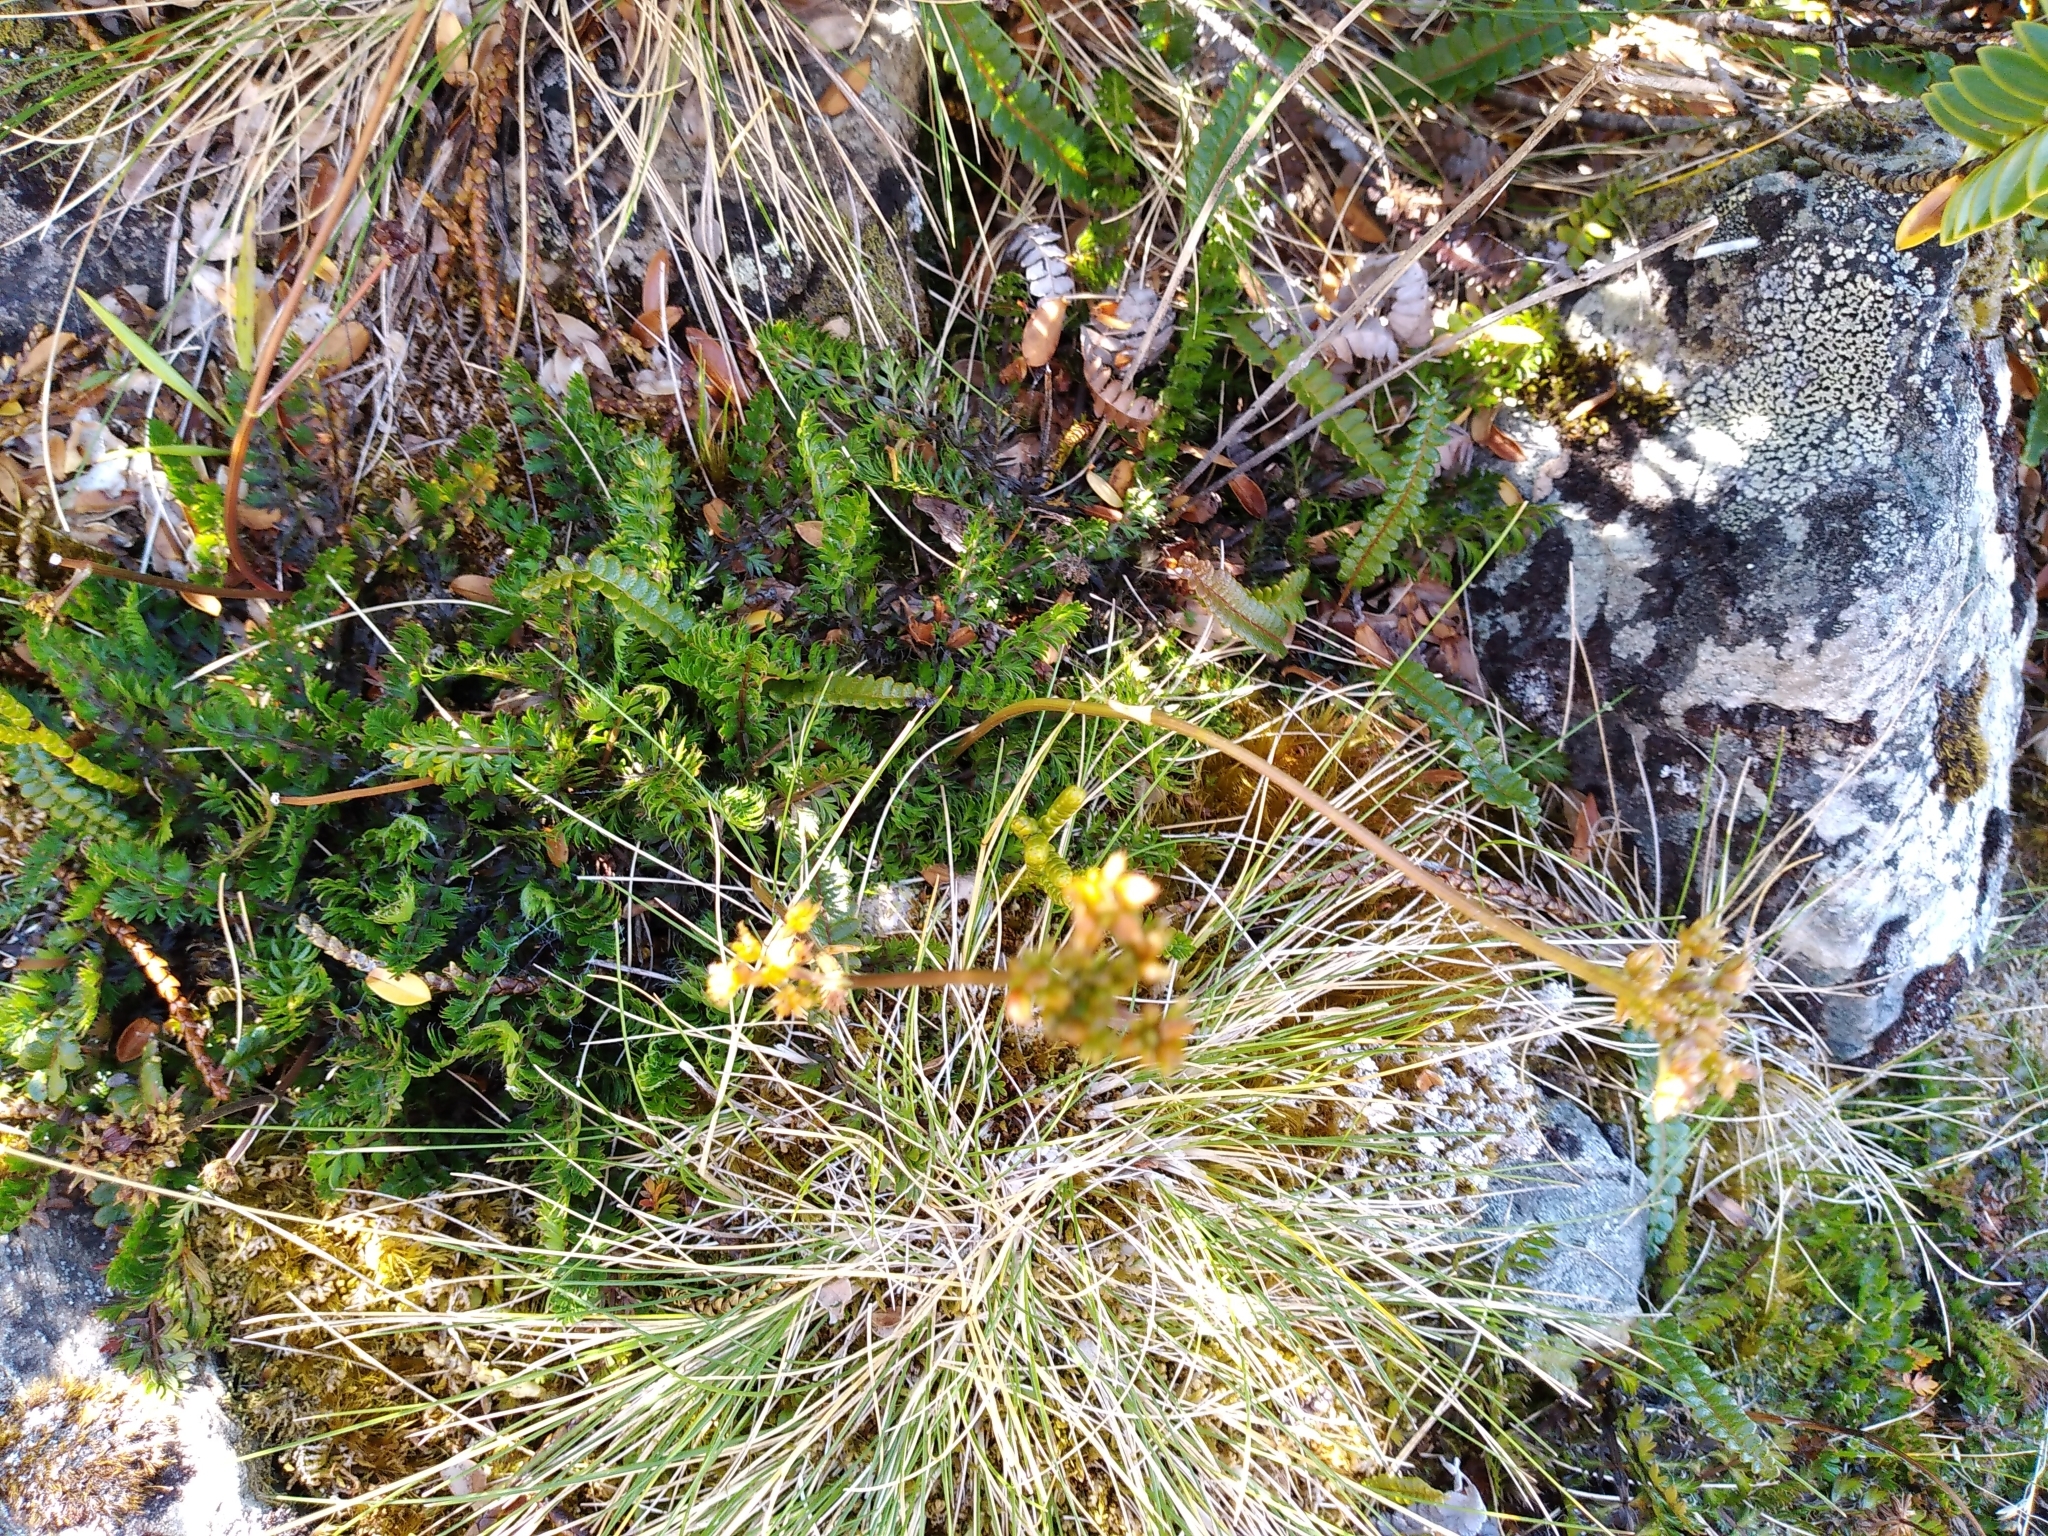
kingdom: Plantae
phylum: Tracheophyta
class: Magnoliopsida
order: Apiales
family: Apiaceae
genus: Anisotome
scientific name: Anisotome flexuosa
